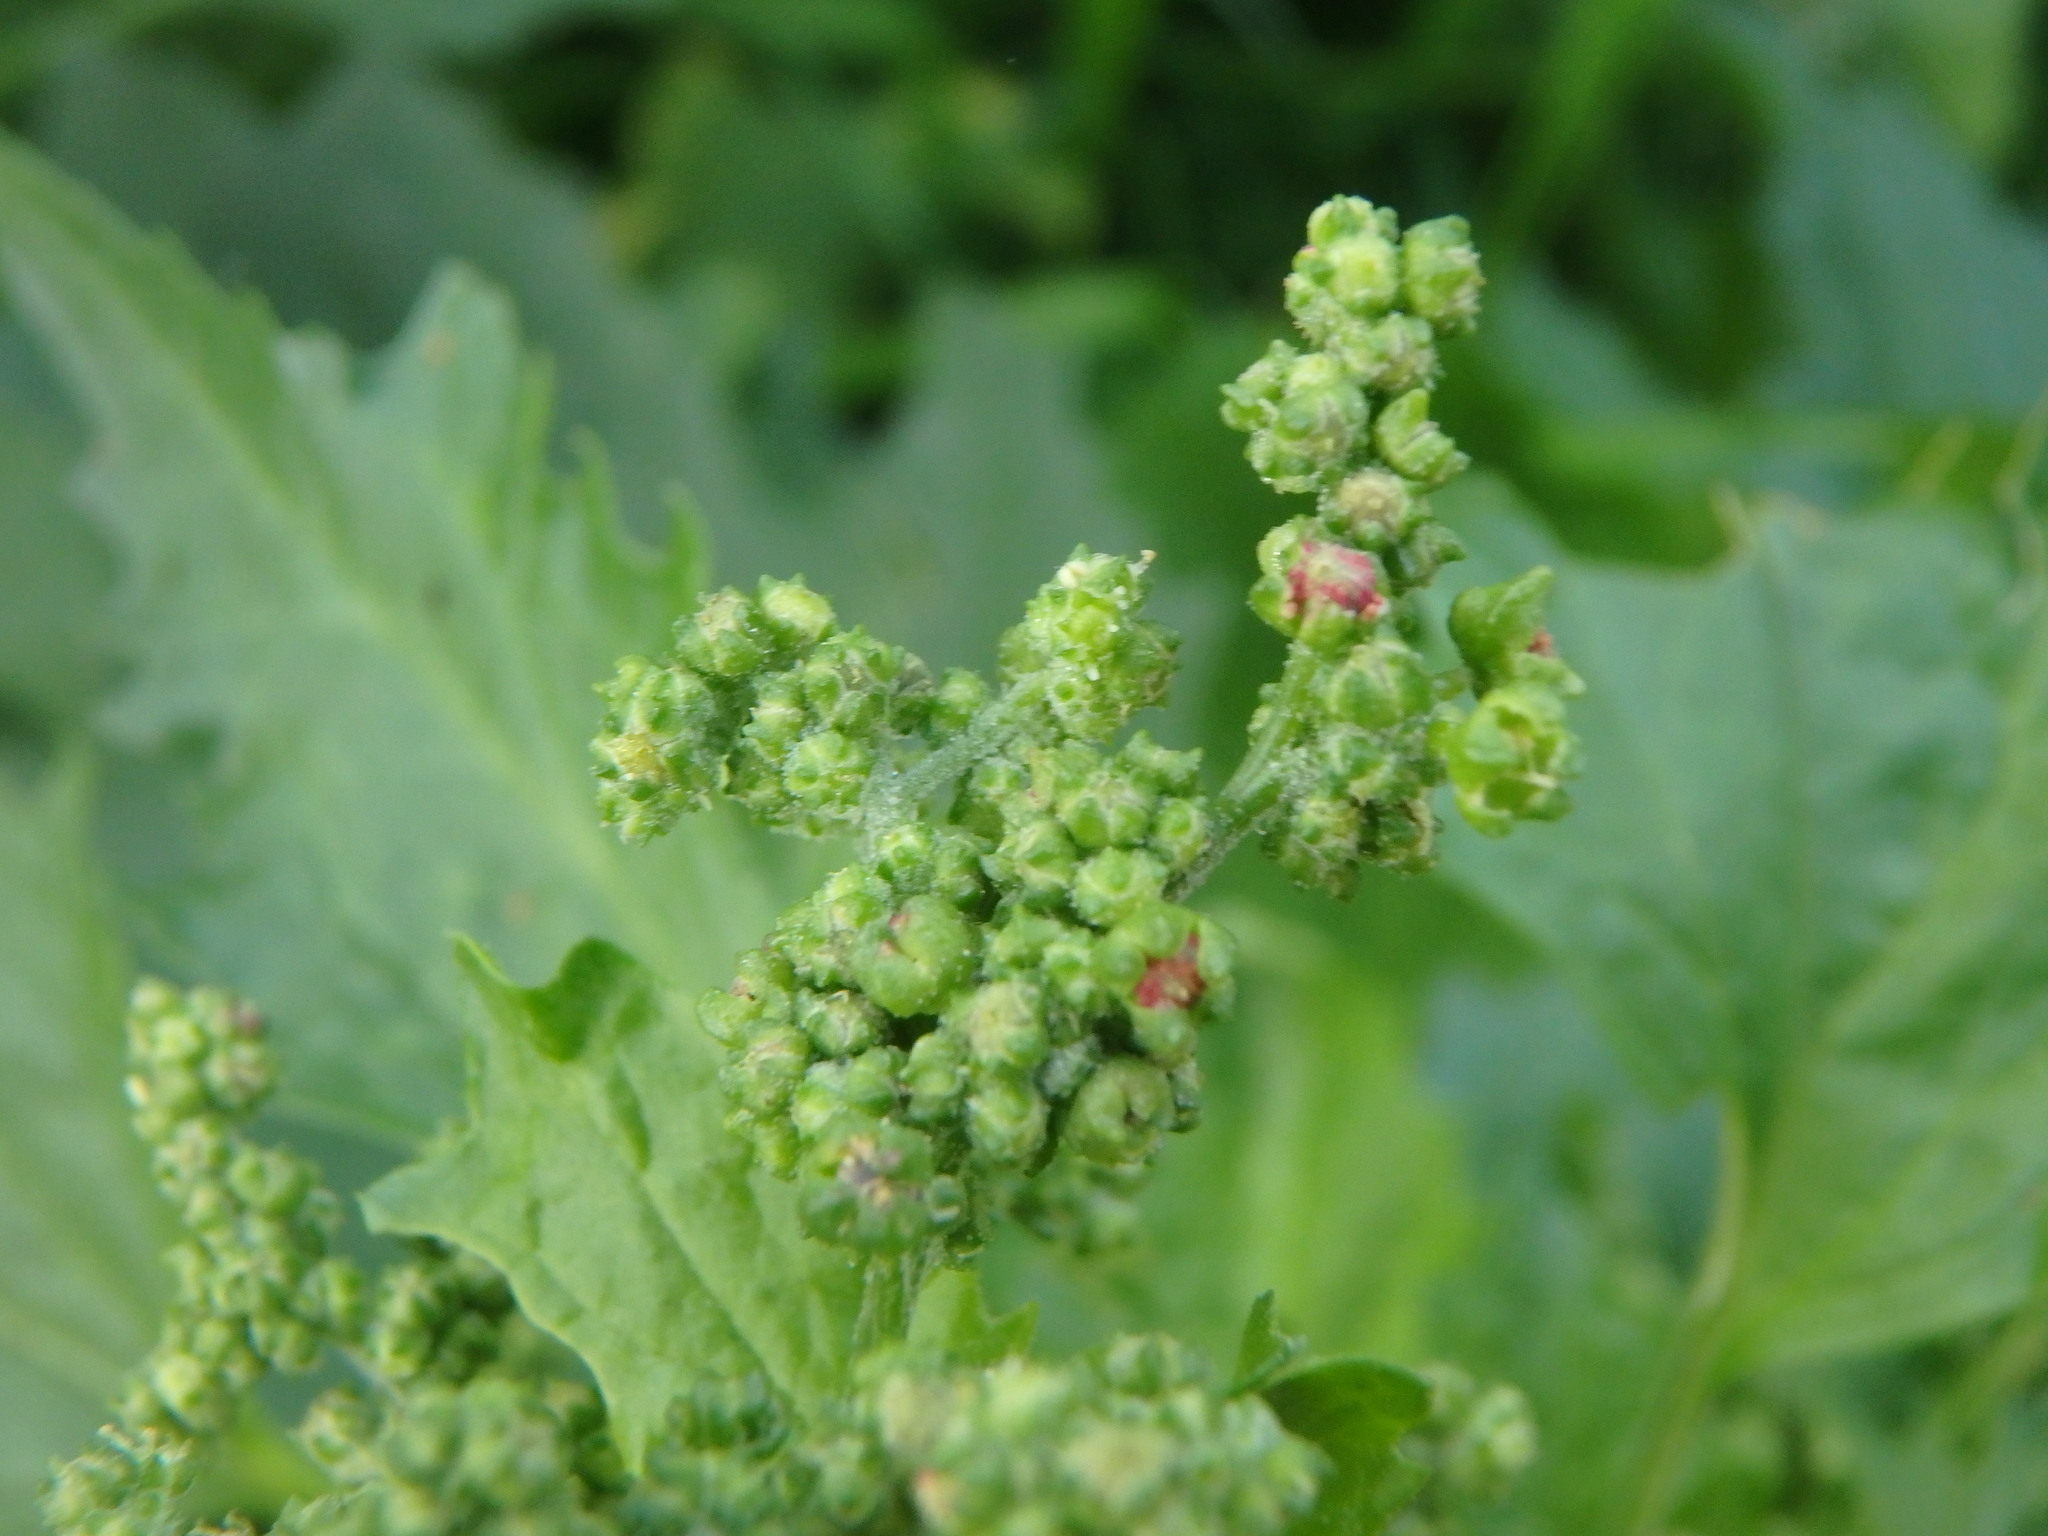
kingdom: Plantae
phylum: Tracheophyta
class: Magnoliopsida
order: Caryophyllales
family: Amaranthaceae
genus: Chenopodiastrum
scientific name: Chenopodiastrum murale
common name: Sowbane
